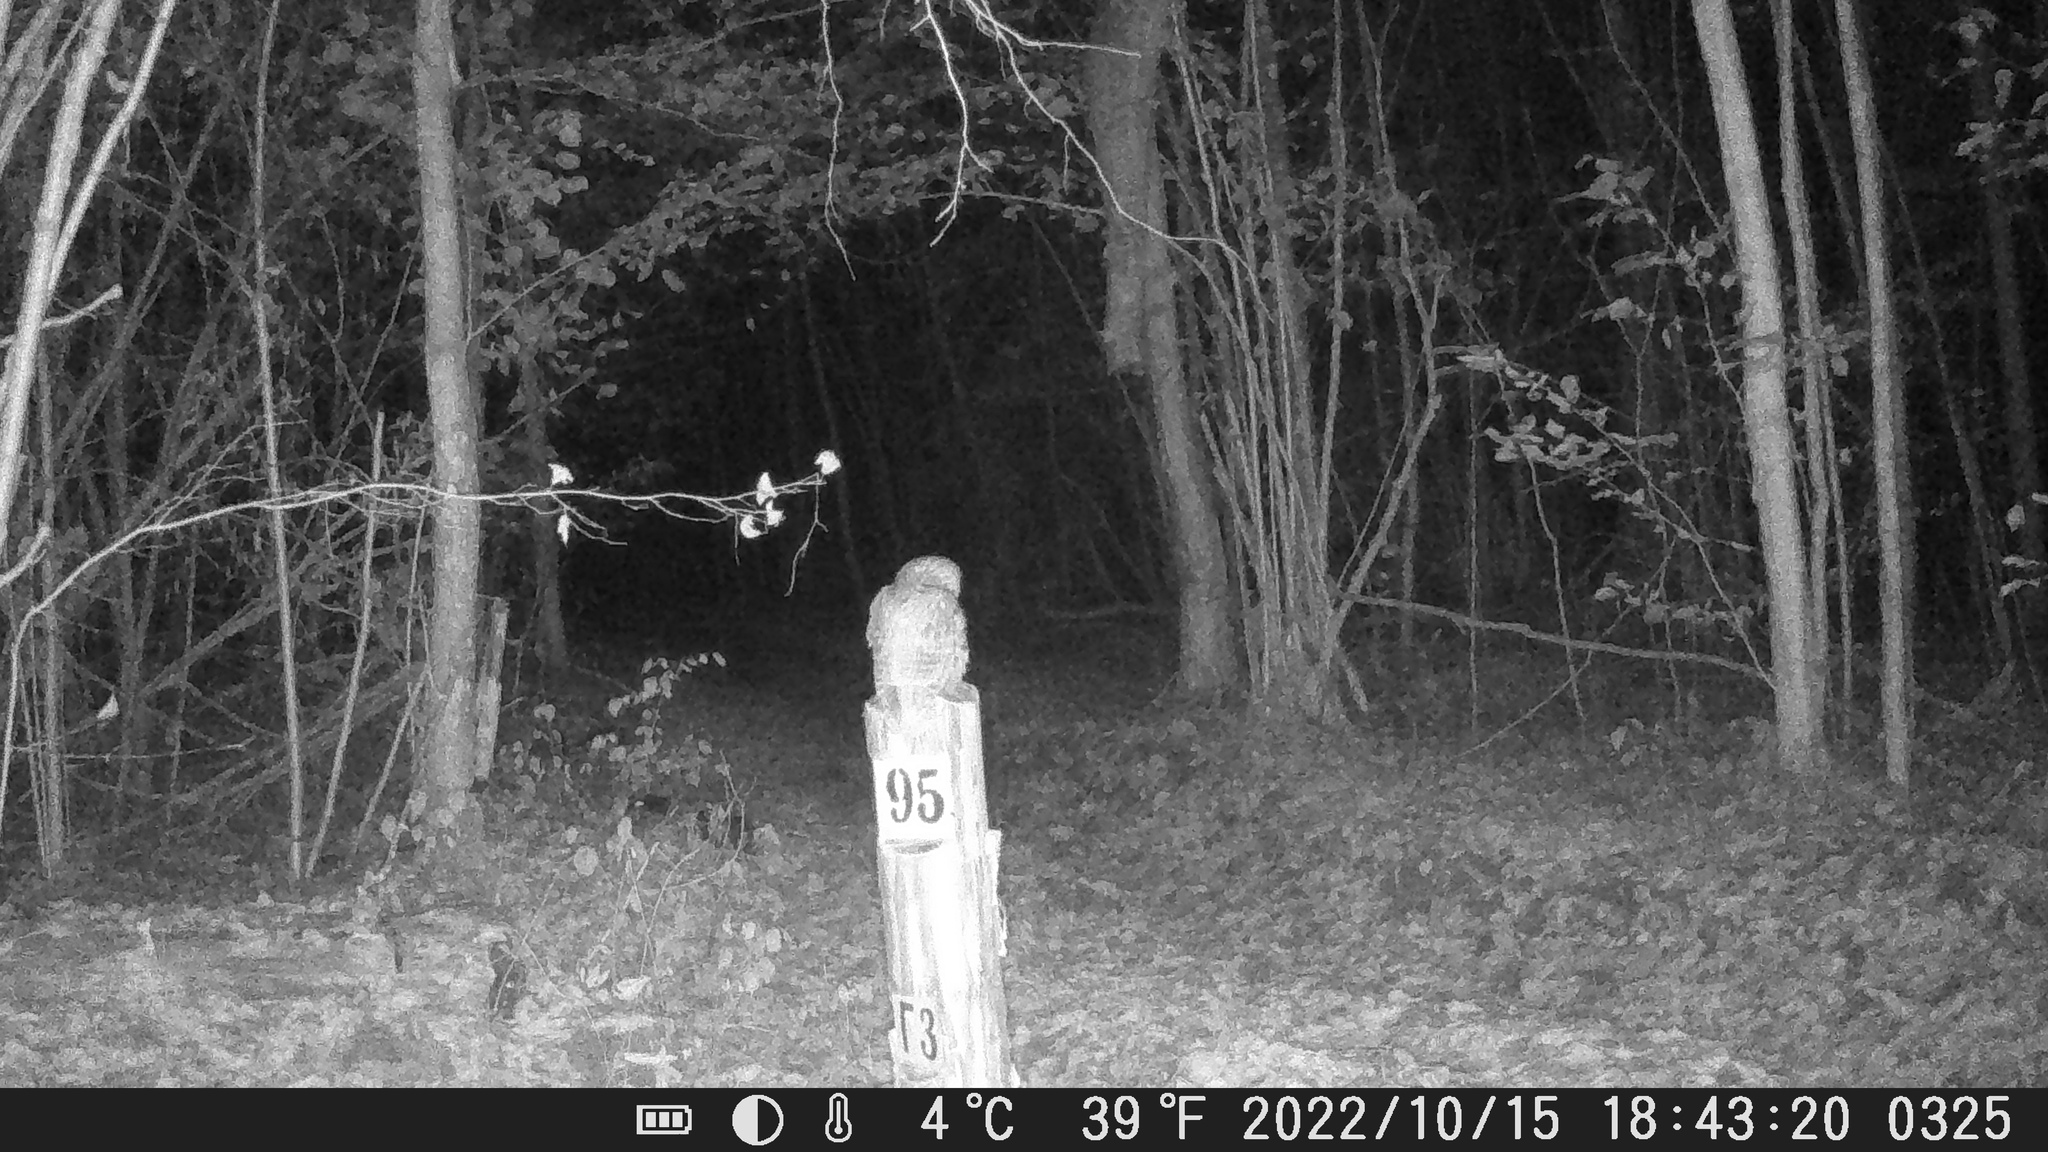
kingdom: Animalia
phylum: Chordata
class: Aves
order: Strigiformes
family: Strigidae
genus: Strix
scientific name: Strix aluco
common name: Tawny owl
